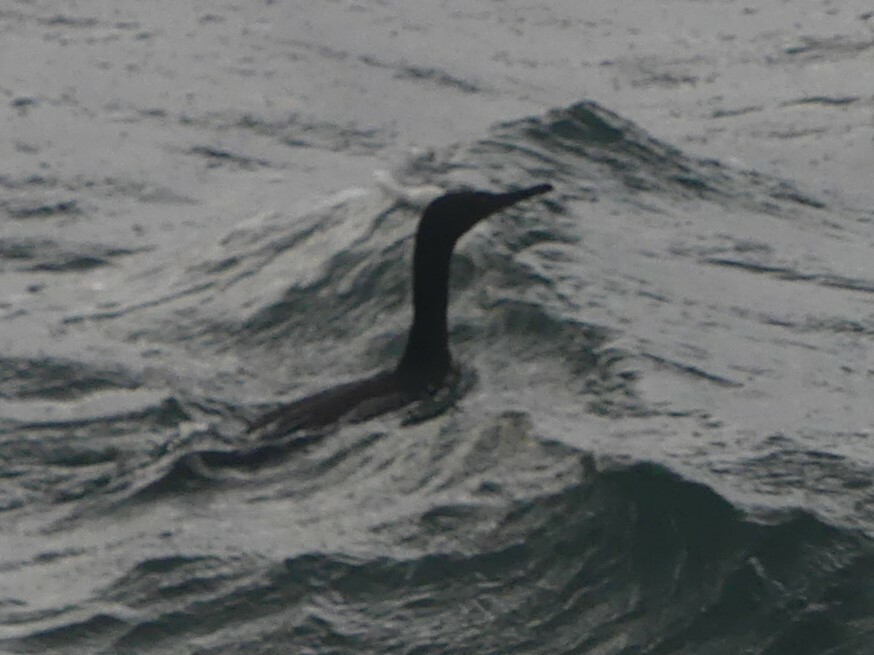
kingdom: Animalia
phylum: Chordata
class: Aves
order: Suliformes
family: Phalacrocoracidae
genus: Phalacrocorax
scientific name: Phalacrocorax pelagicus
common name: Pelagic cormorant
